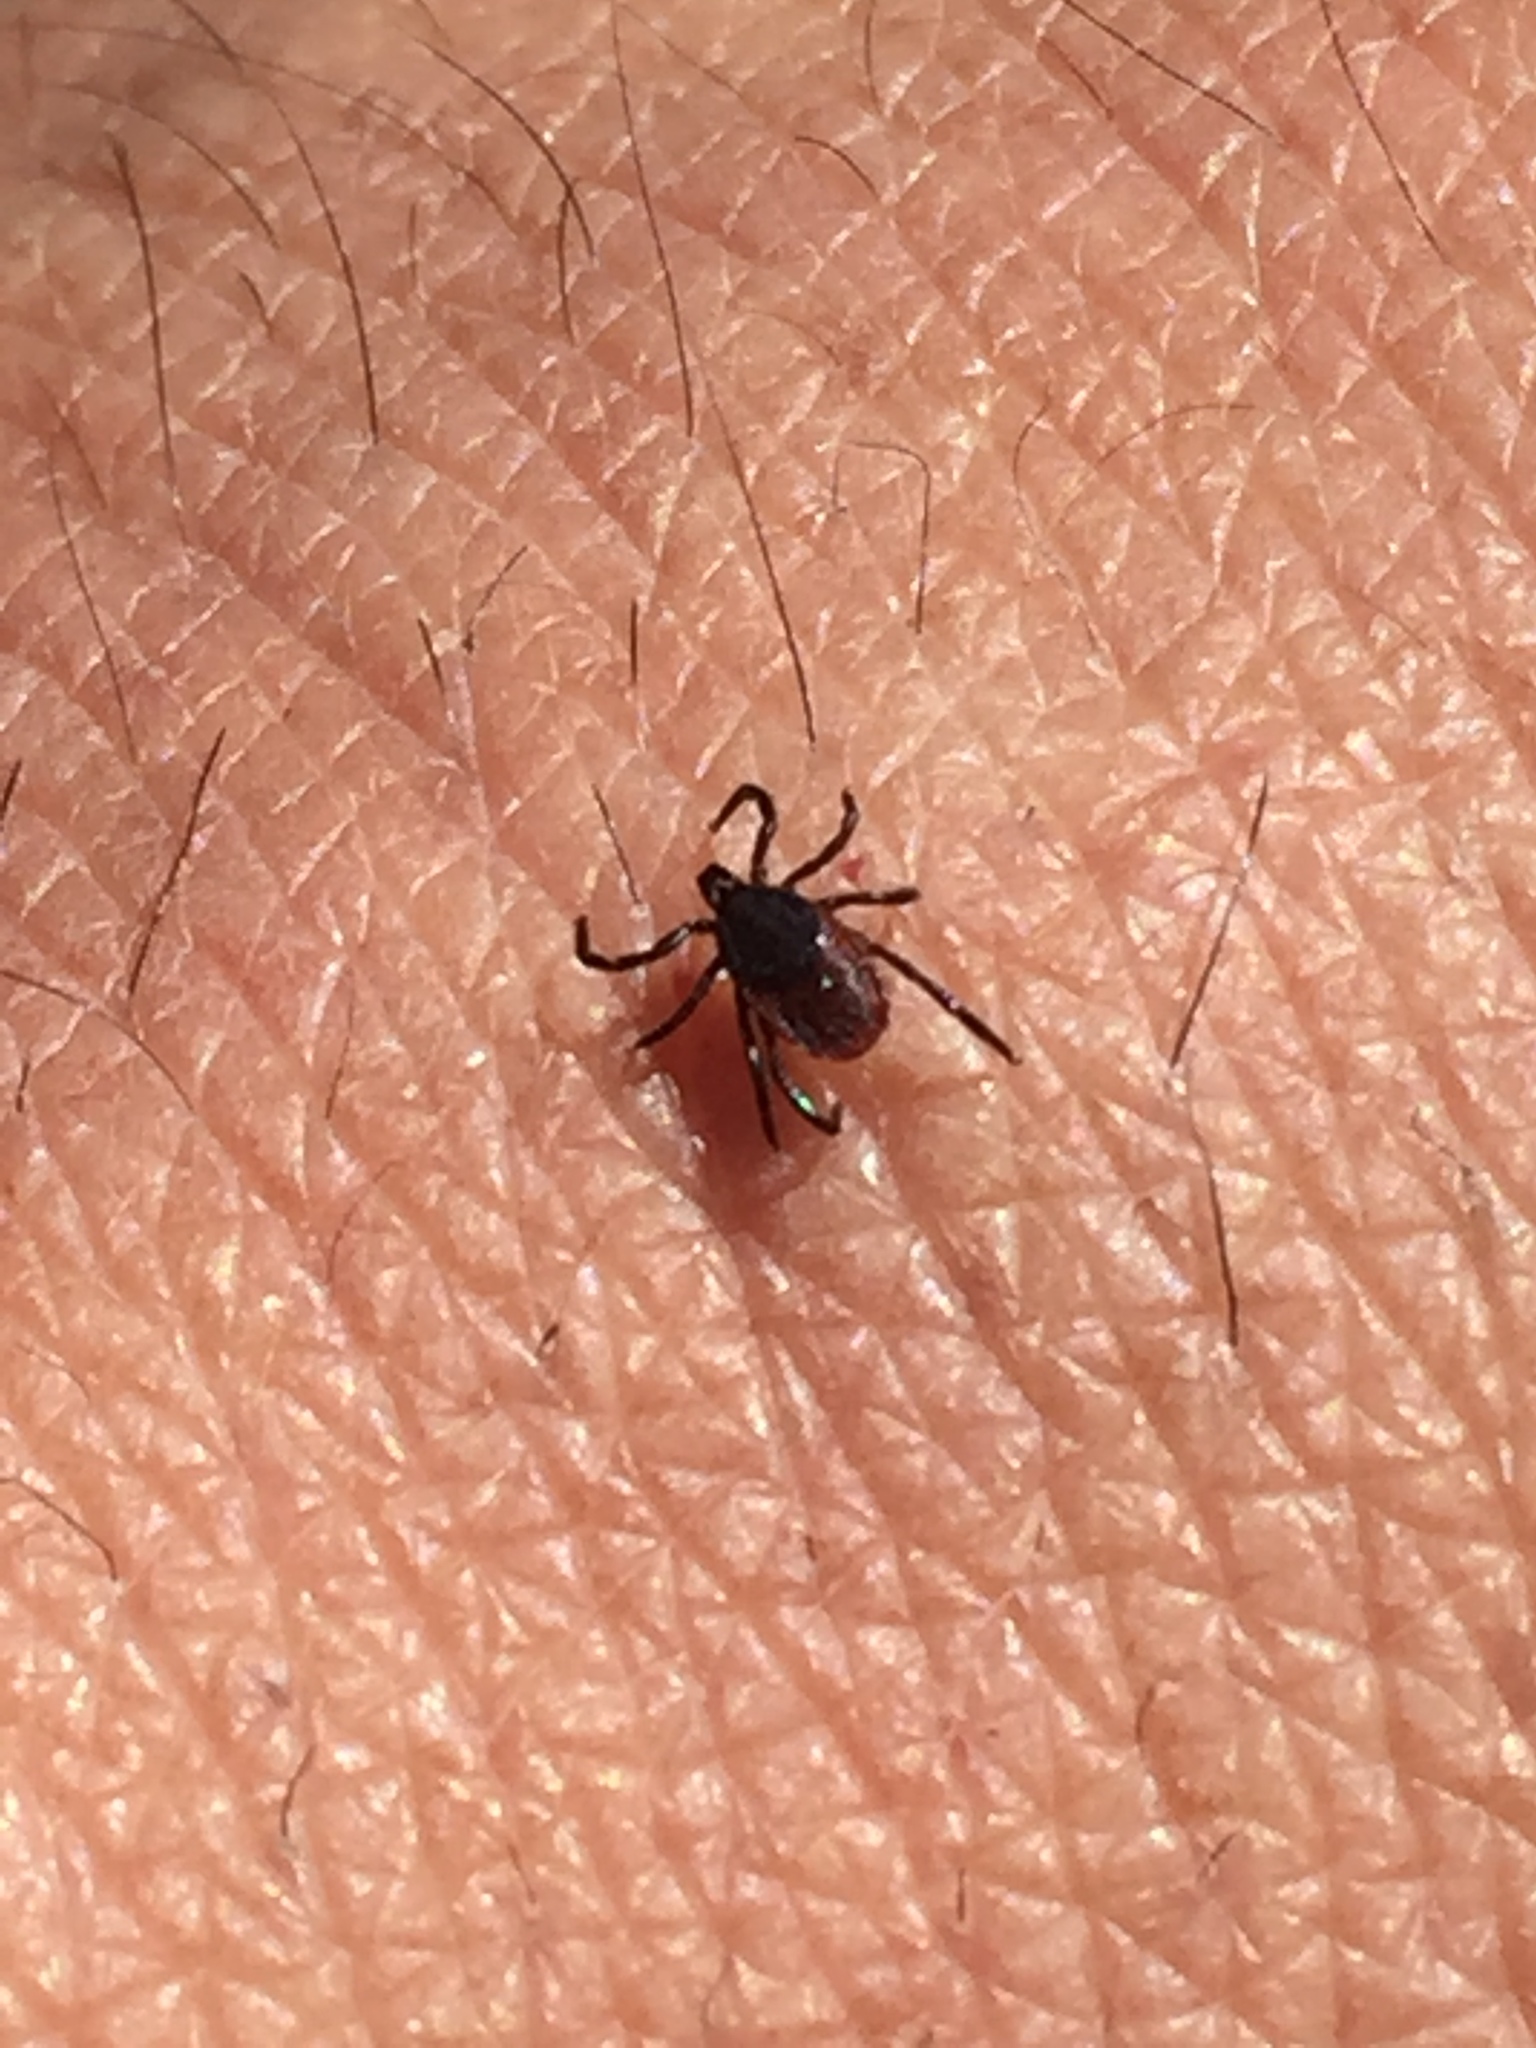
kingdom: Animalia
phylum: Arthropoda
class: Arachnida
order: Ixodida
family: Ixodidae
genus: Ixodes
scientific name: Ixodes pacificus
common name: California black-legged tick
